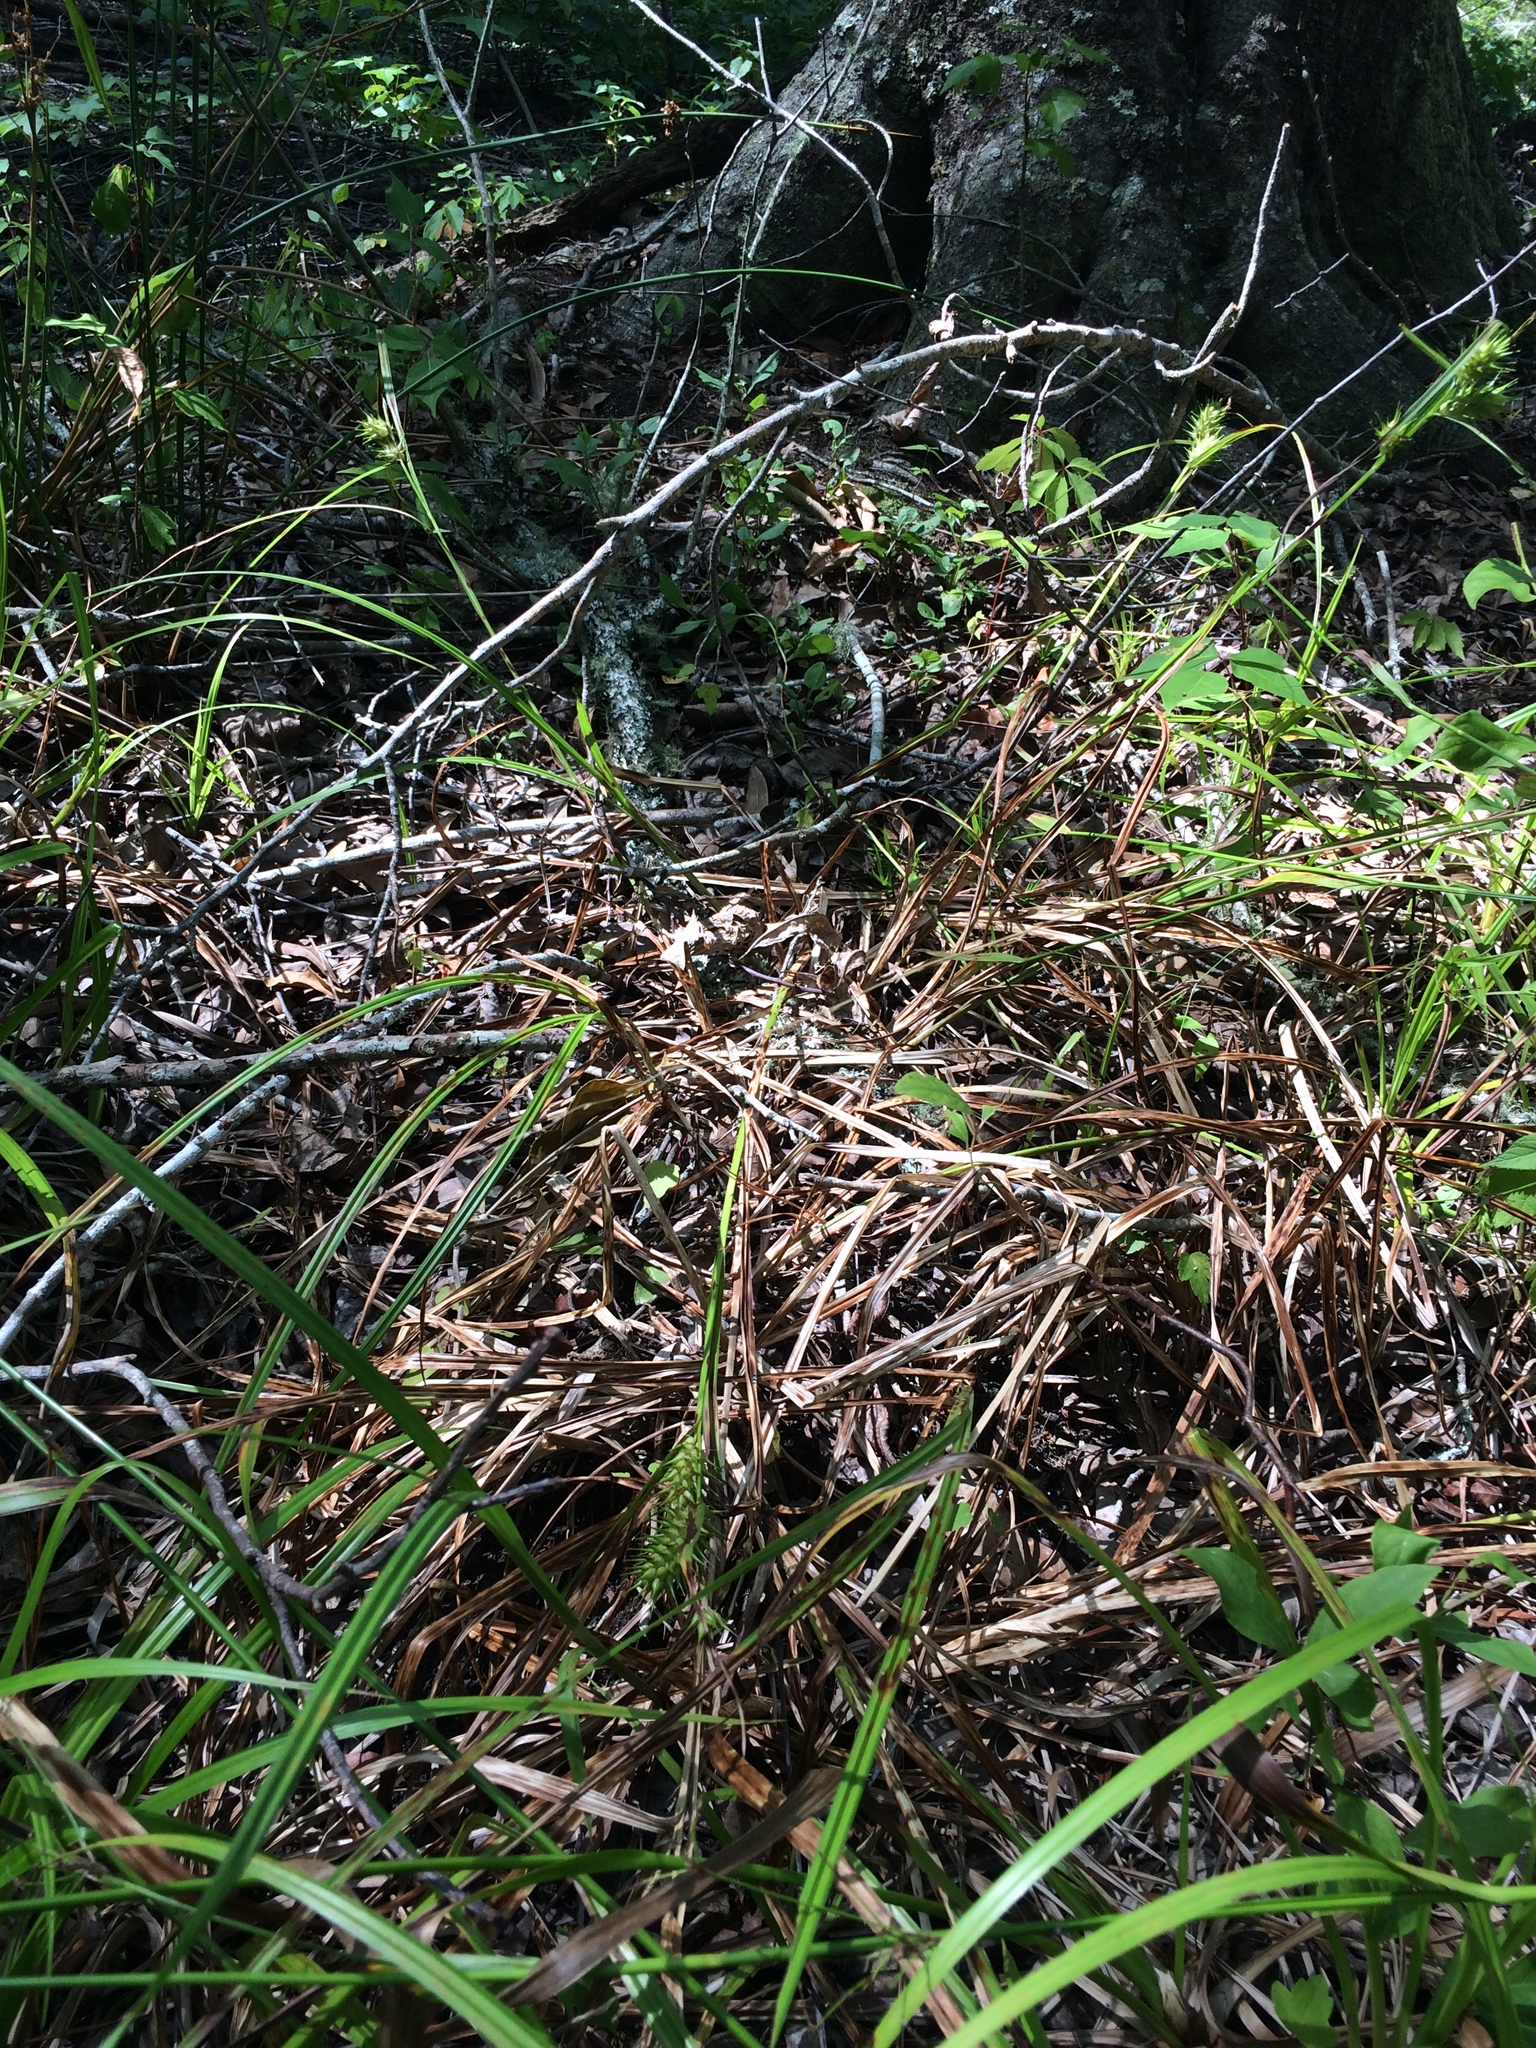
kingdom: Plantae
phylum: Tracheophyta
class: Liliopsida
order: Poales
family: Cyperaceae
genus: Carex
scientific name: Carex lupulina
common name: Hop sedge
